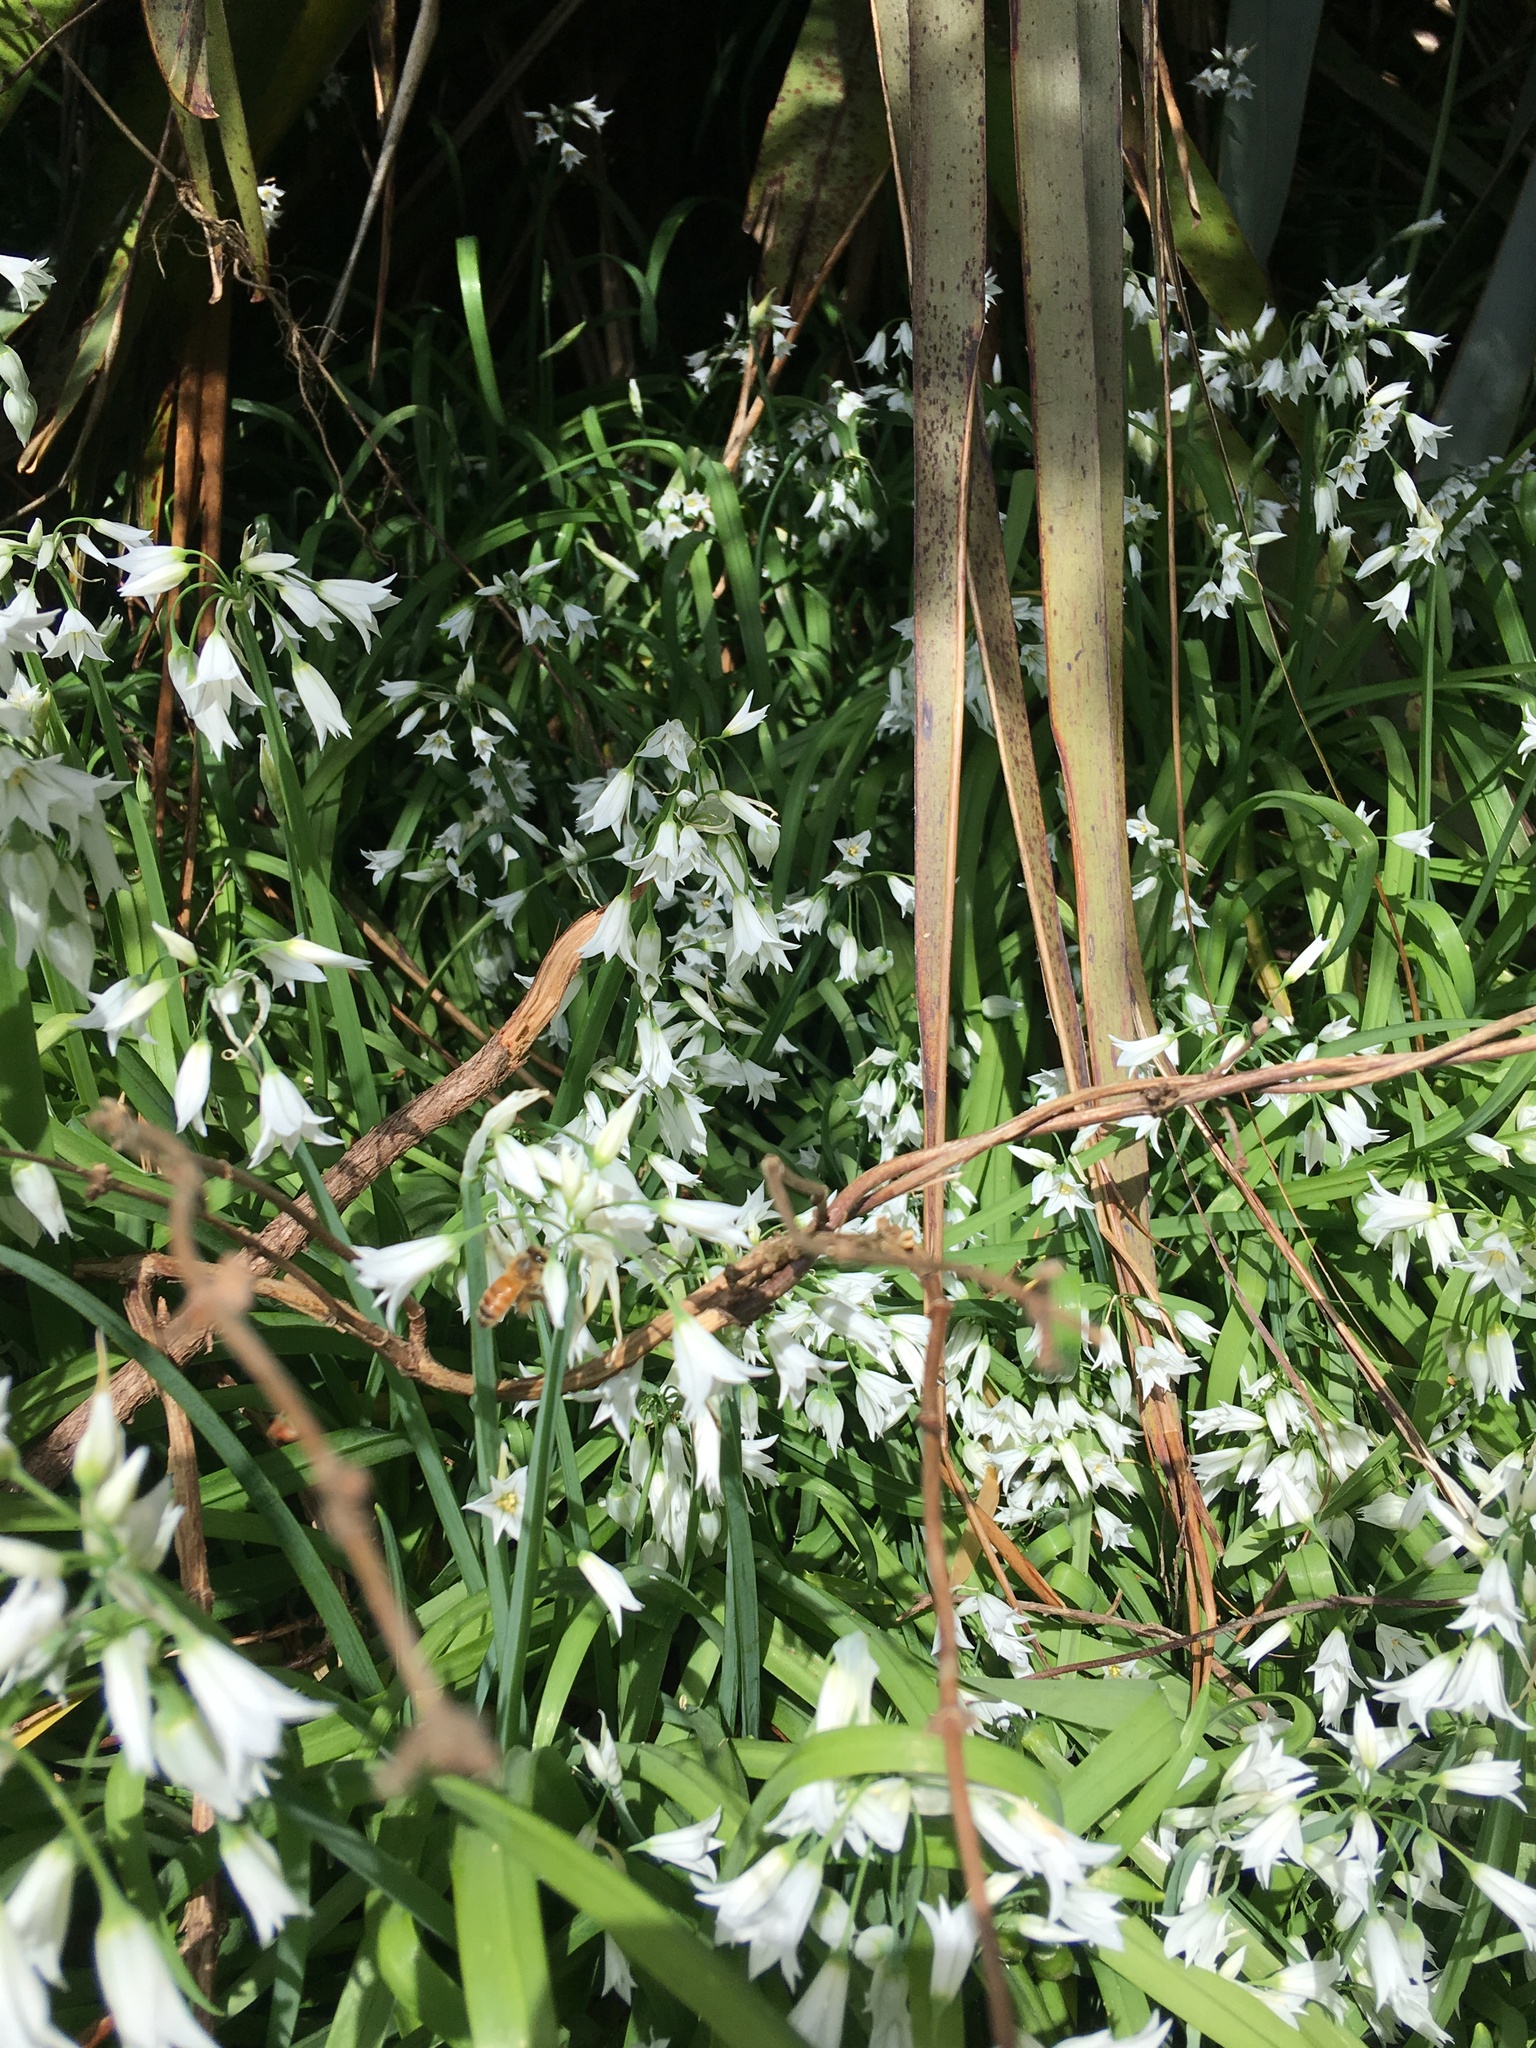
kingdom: Animalia
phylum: Arthropoda
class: Insecta
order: Hymenoptera
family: Apidae
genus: Apis
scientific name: Apis mellifera
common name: Honey bee
